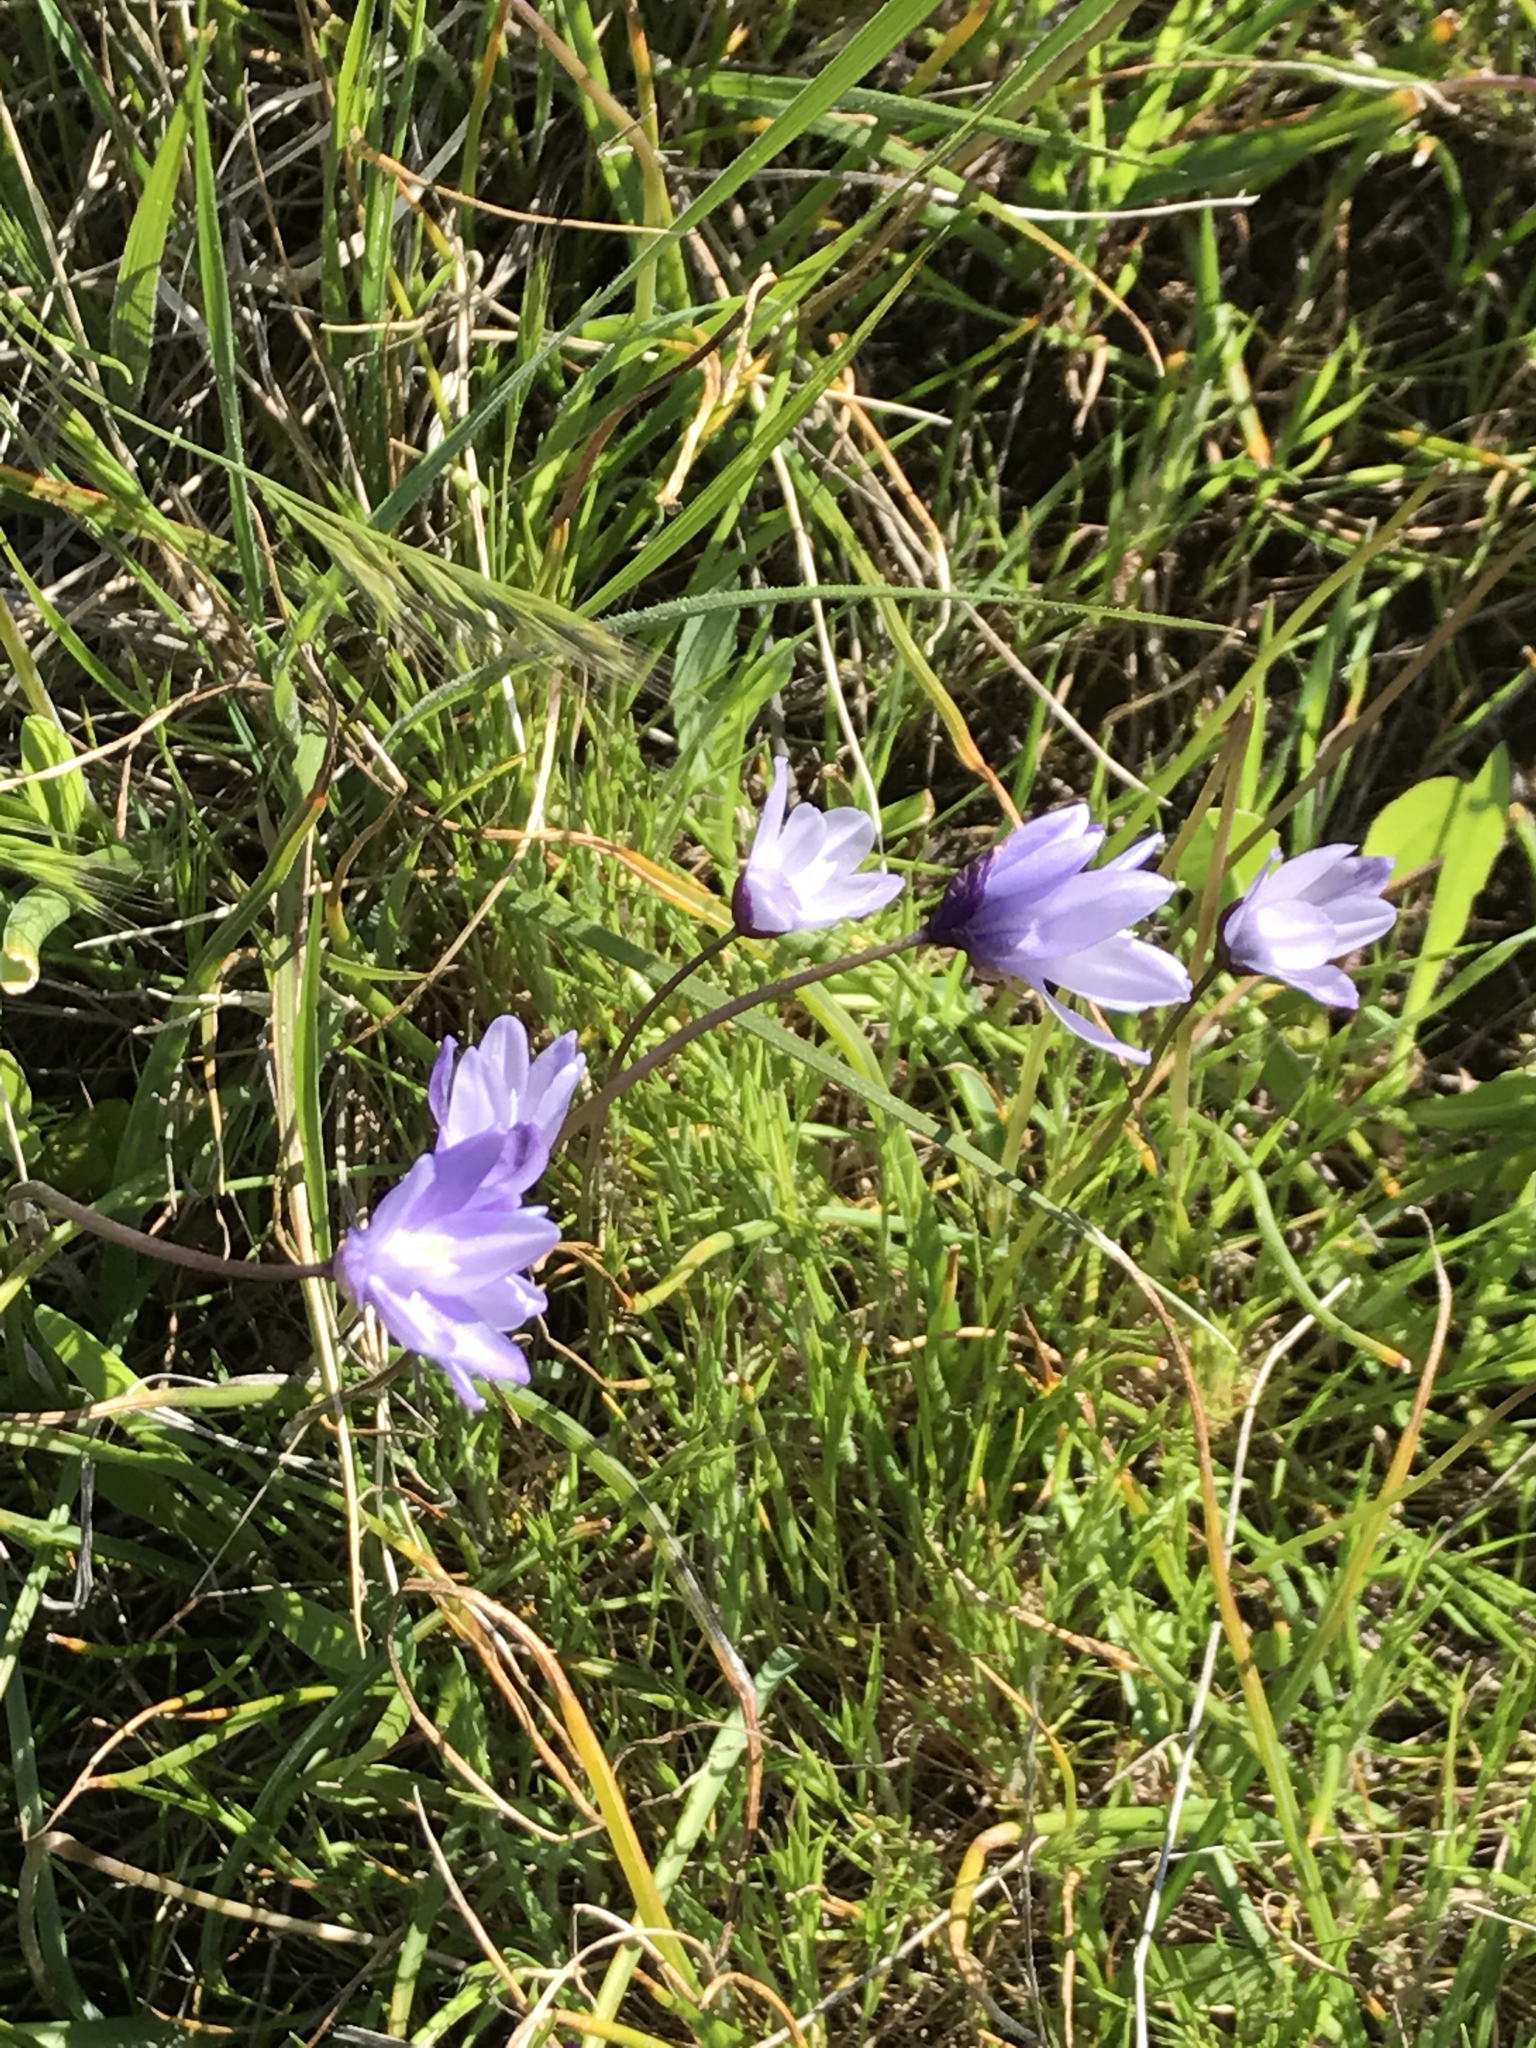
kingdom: Plantae
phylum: Tracheophyta
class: Liliopsida
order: Asparagales
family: Asparagaceae
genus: Dipterostemon
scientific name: Dipterostemon capitatus
